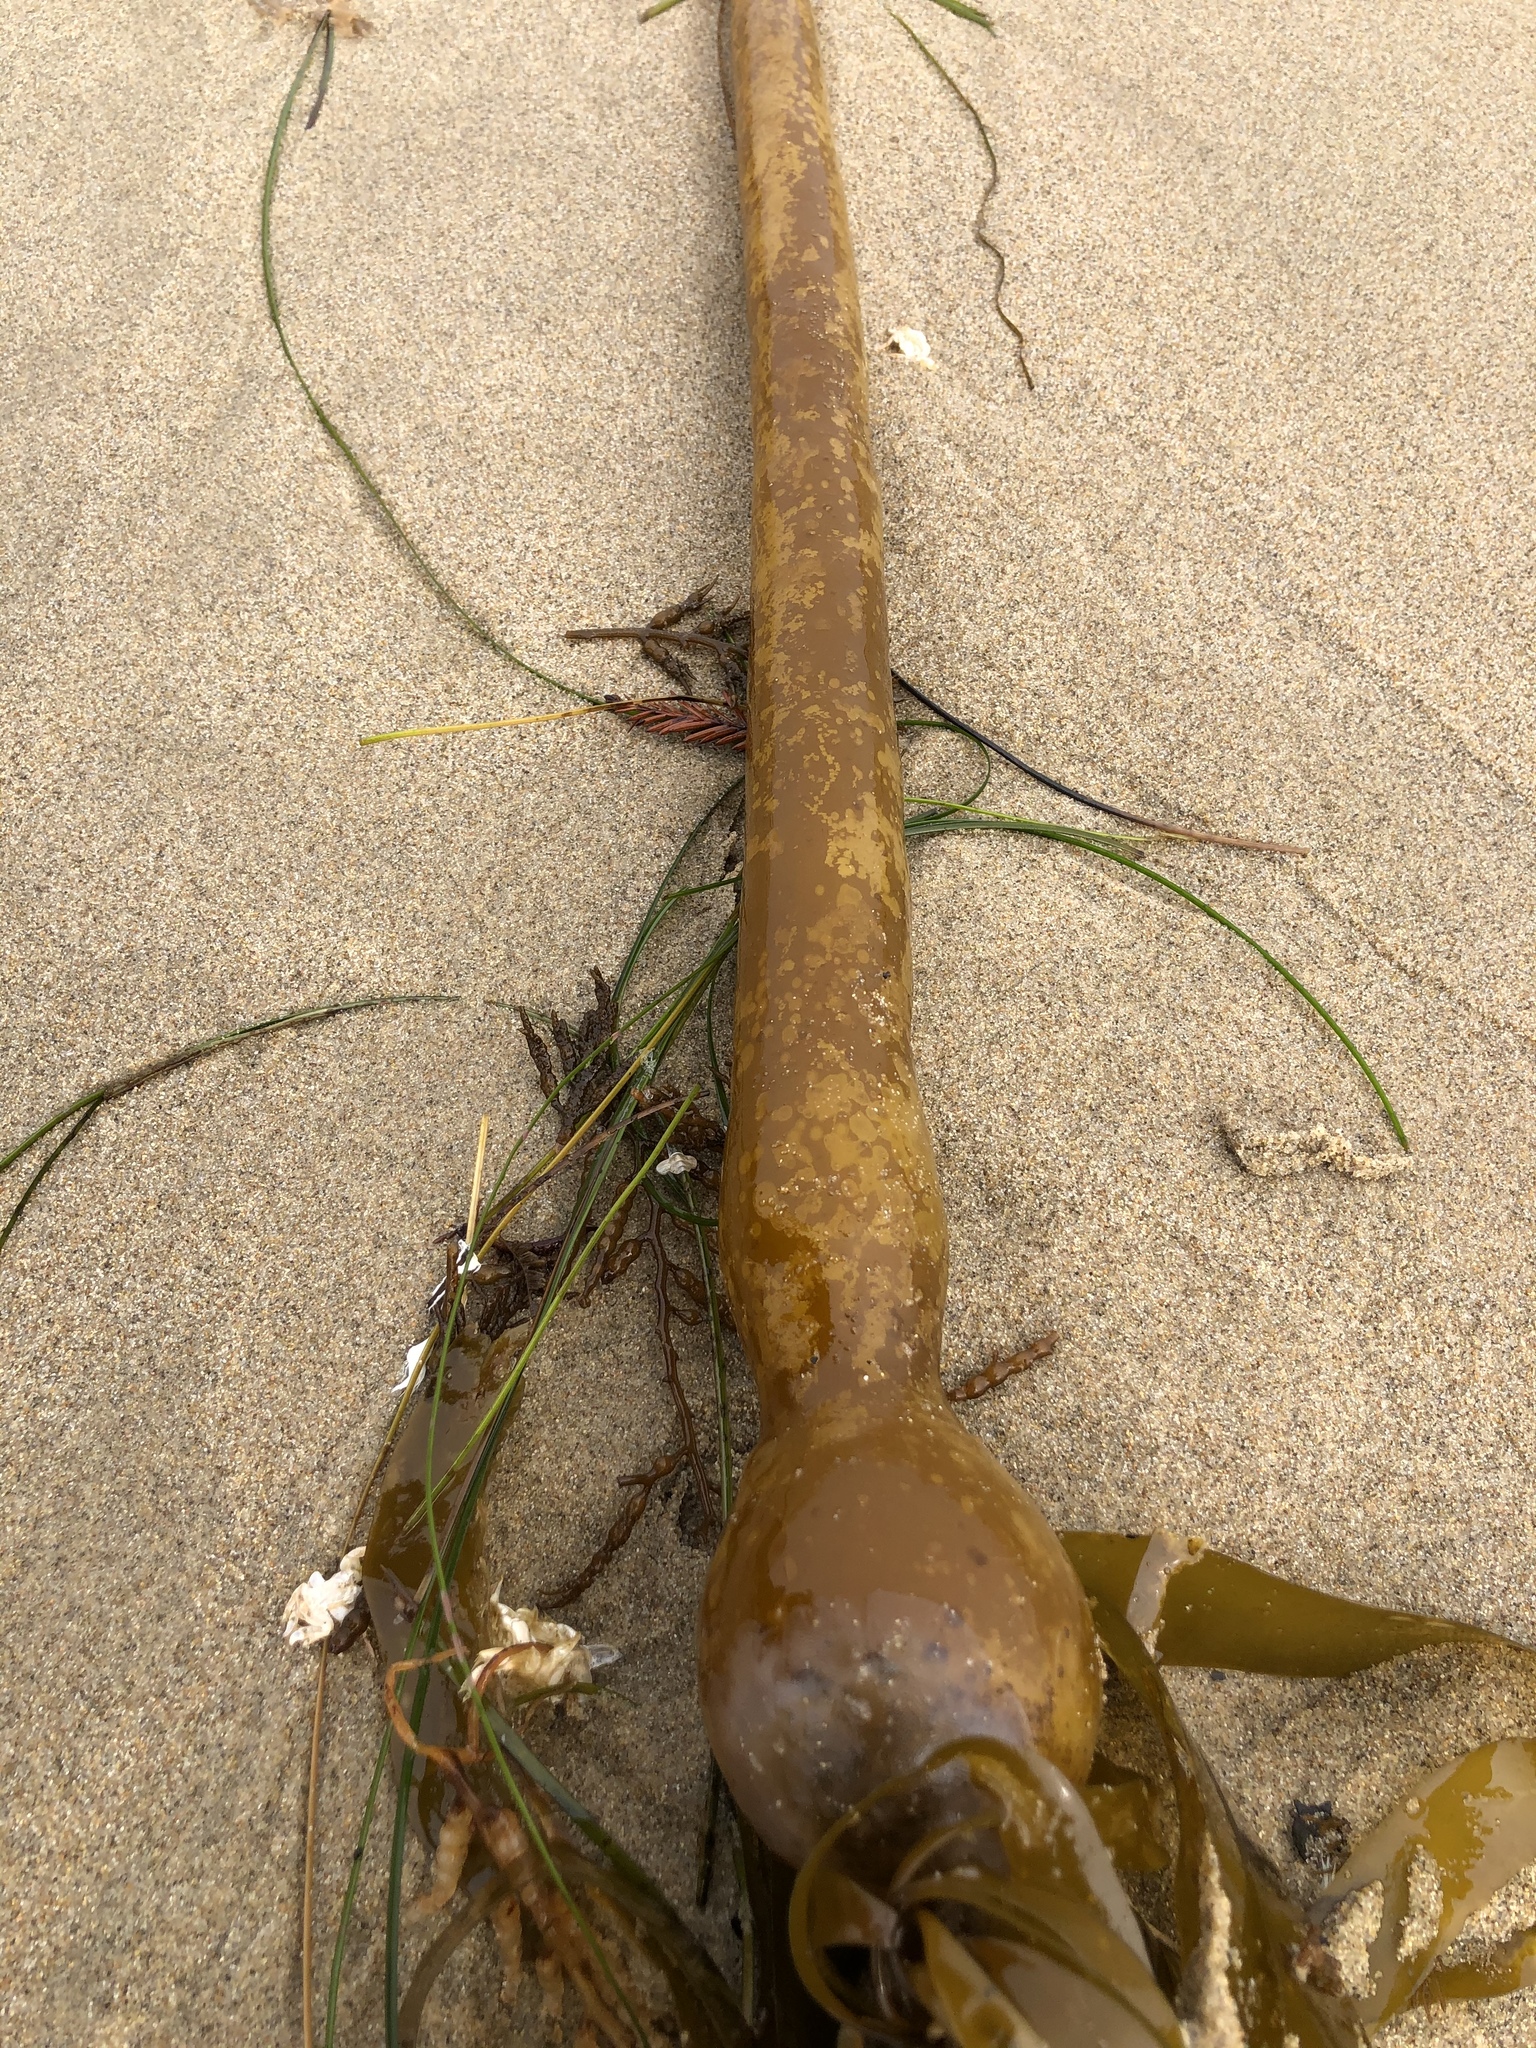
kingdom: Chromista
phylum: Ochrophyta
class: Phaeophyceae
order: Laminariales
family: Laminariaceae
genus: Nereocystis
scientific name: Nereocystis luetkeana
